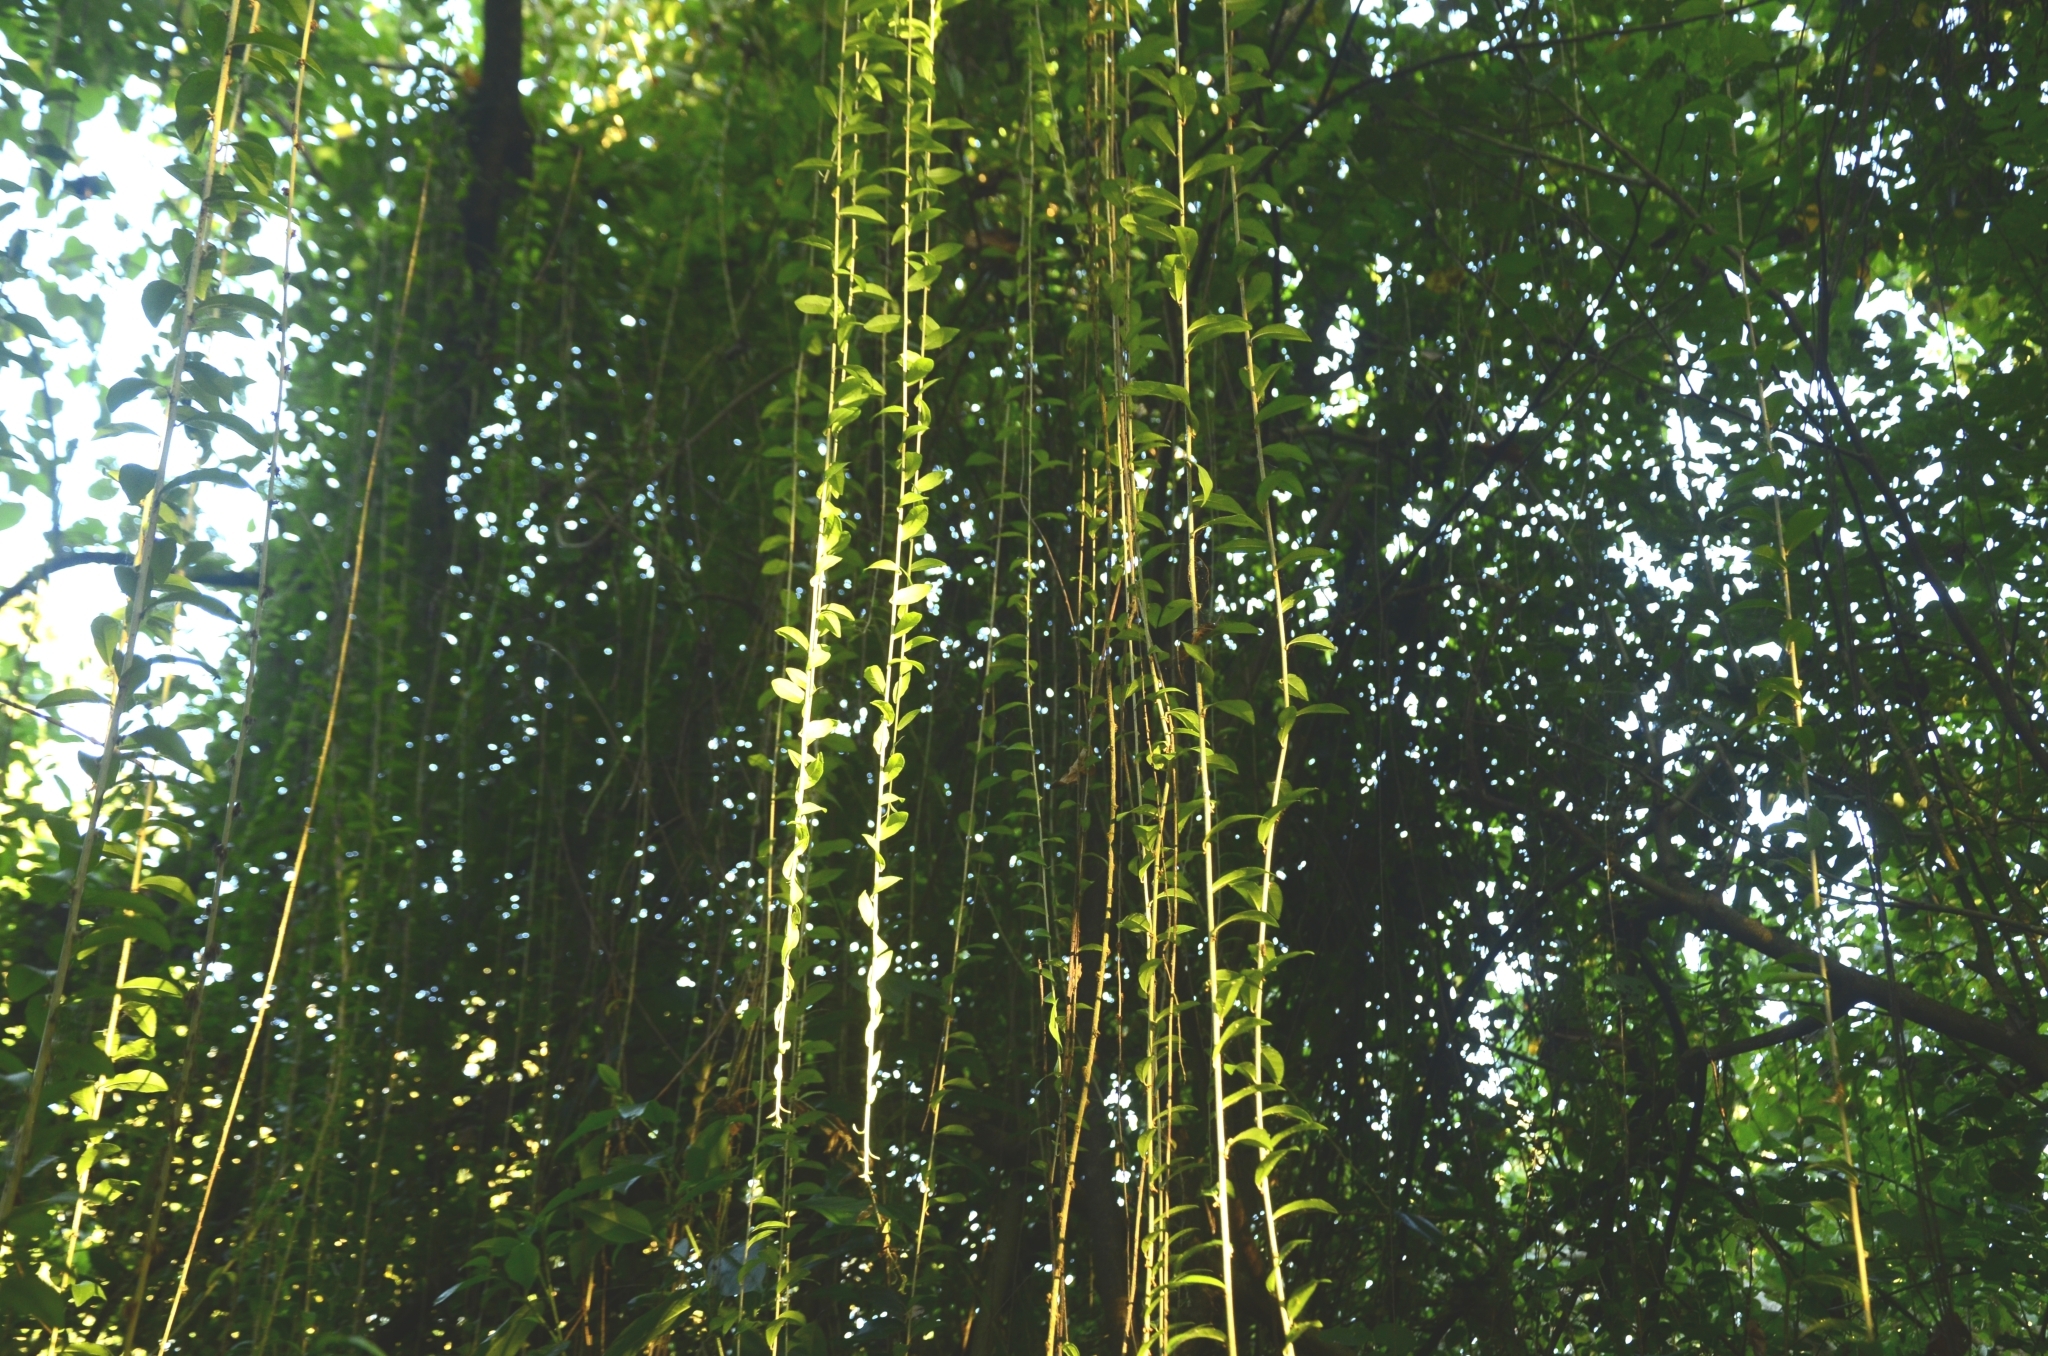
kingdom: Plantae
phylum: Tracheophyta
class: Magnoliopsida
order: Asterales
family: Asteraceae
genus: Tarlmounia
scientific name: Tarlmounia elliptica
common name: Kheua sa lot
